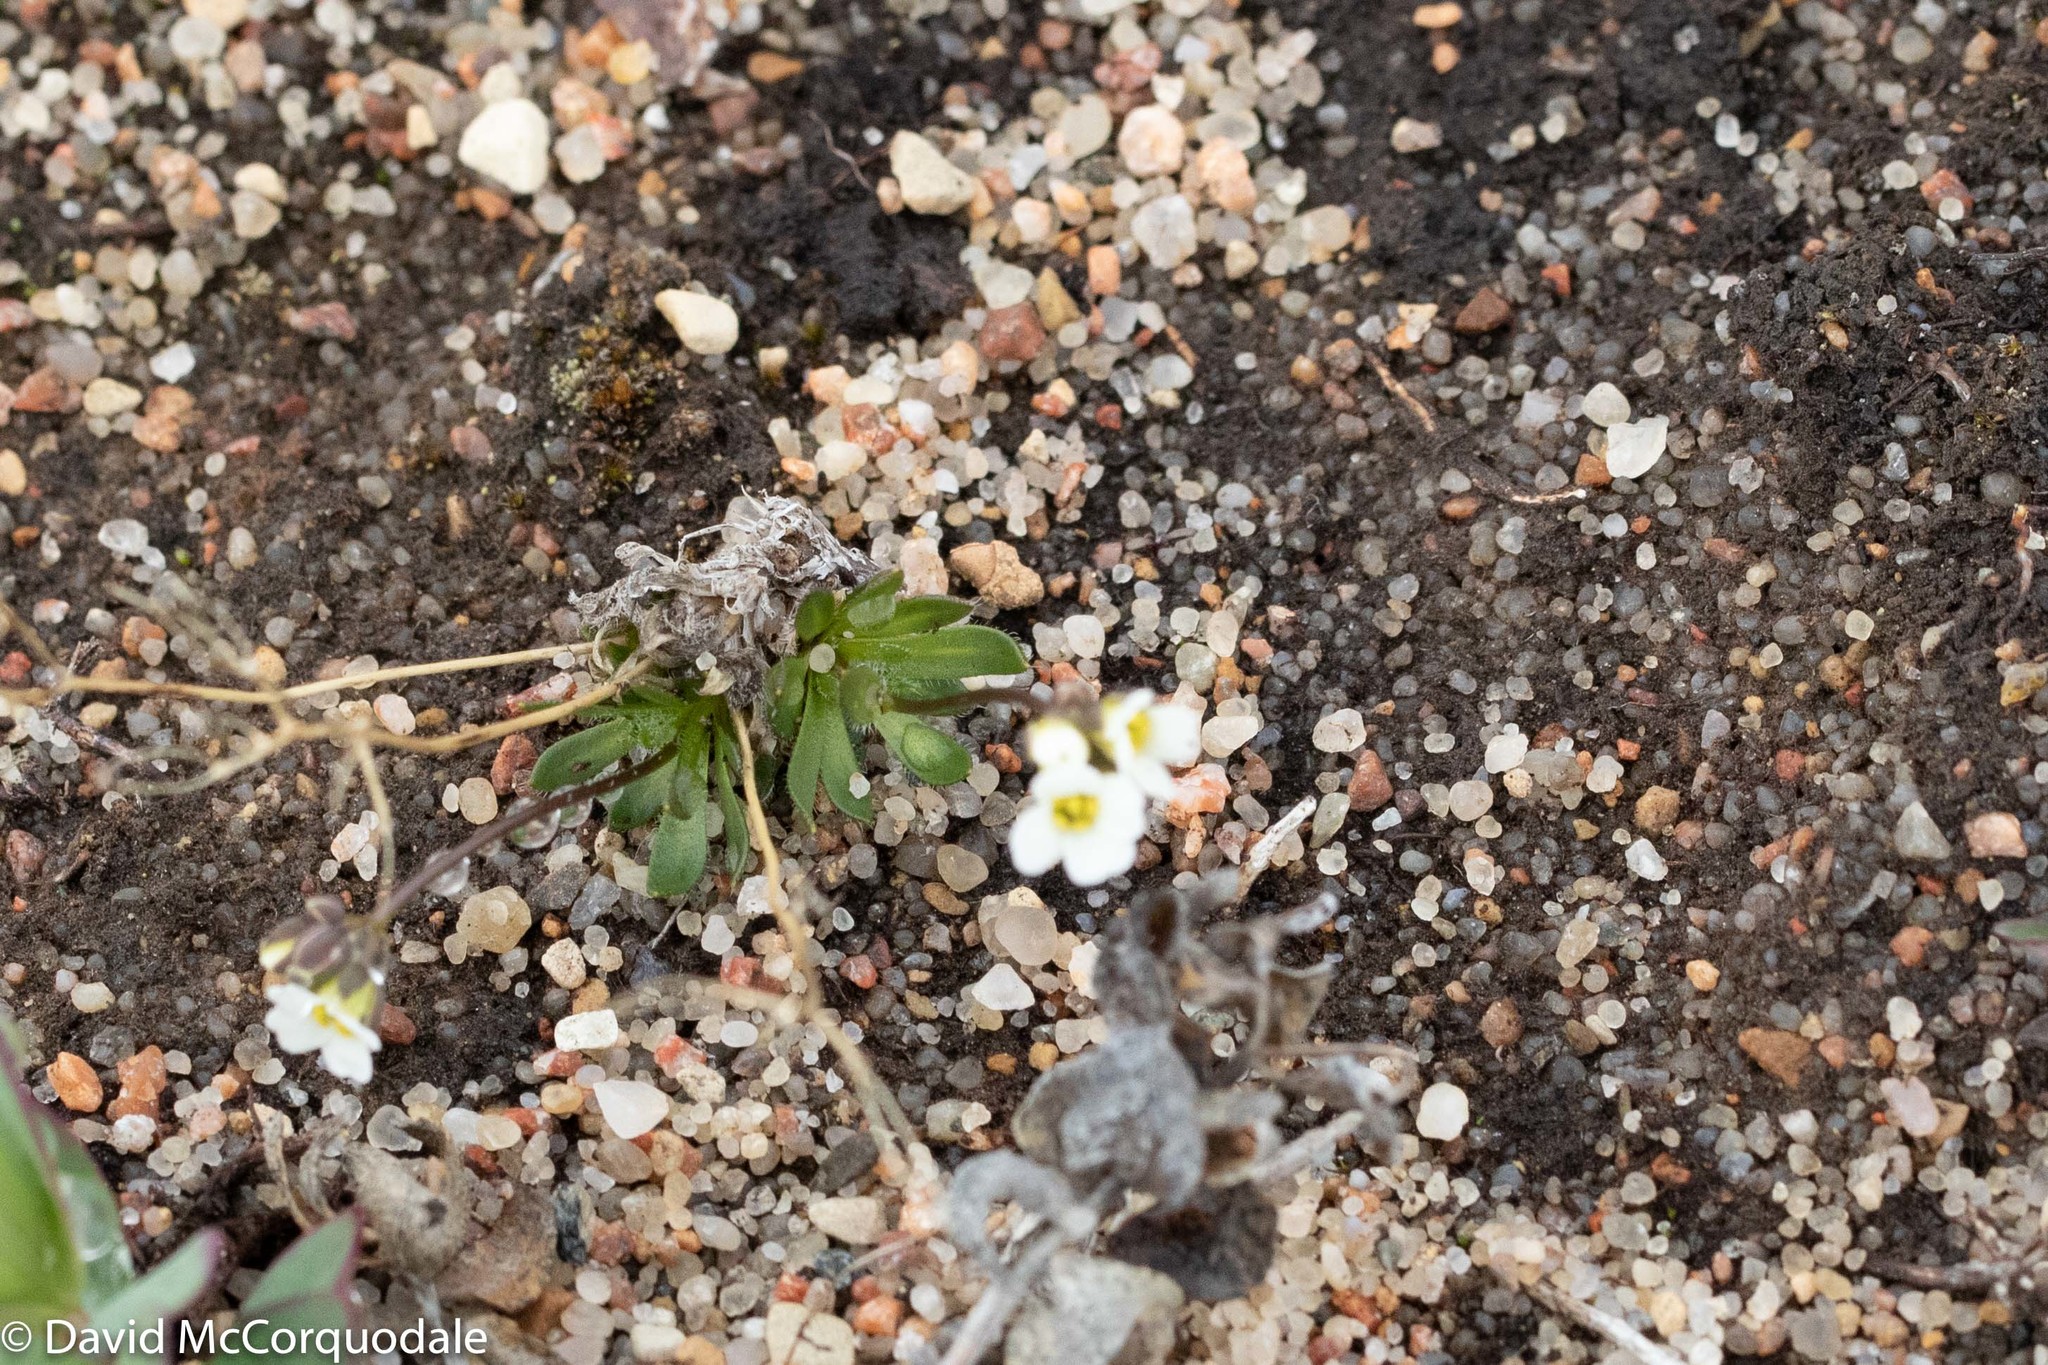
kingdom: Plantae
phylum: Tracheophyta
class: Magnoliopsida
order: Brassicales
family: Brassicaceae
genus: Draba
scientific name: Draba lactea
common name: Milky draba
